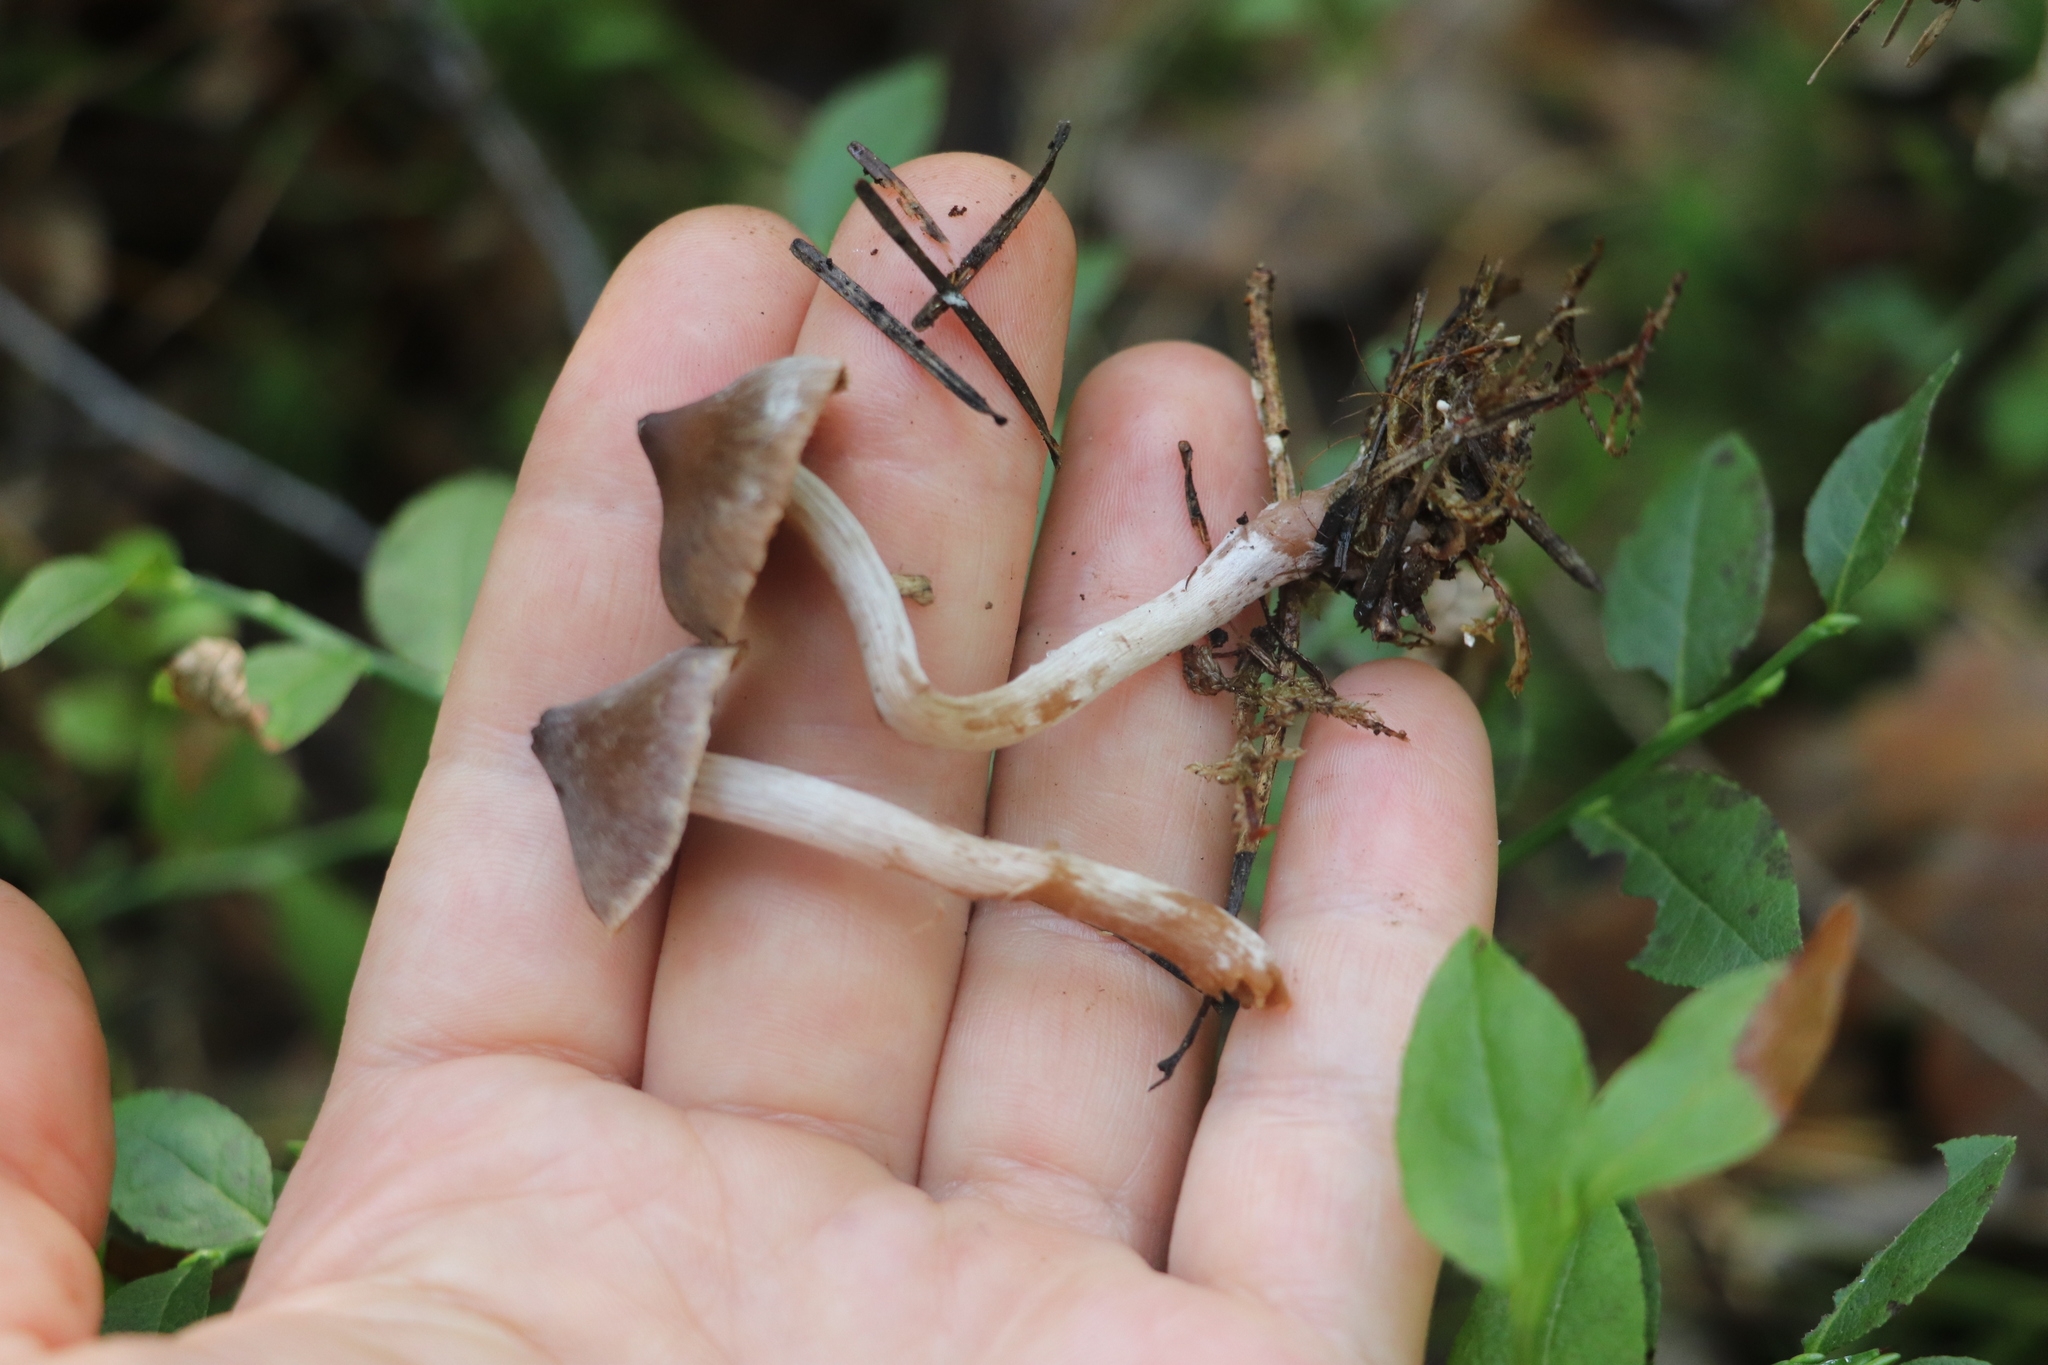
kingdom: Fungi
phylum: Basidiomycota
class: Agaricomycetes
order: Agaricales
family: Cortinariaceae
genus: Cortinarius
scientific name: Cortinarius casimirii
